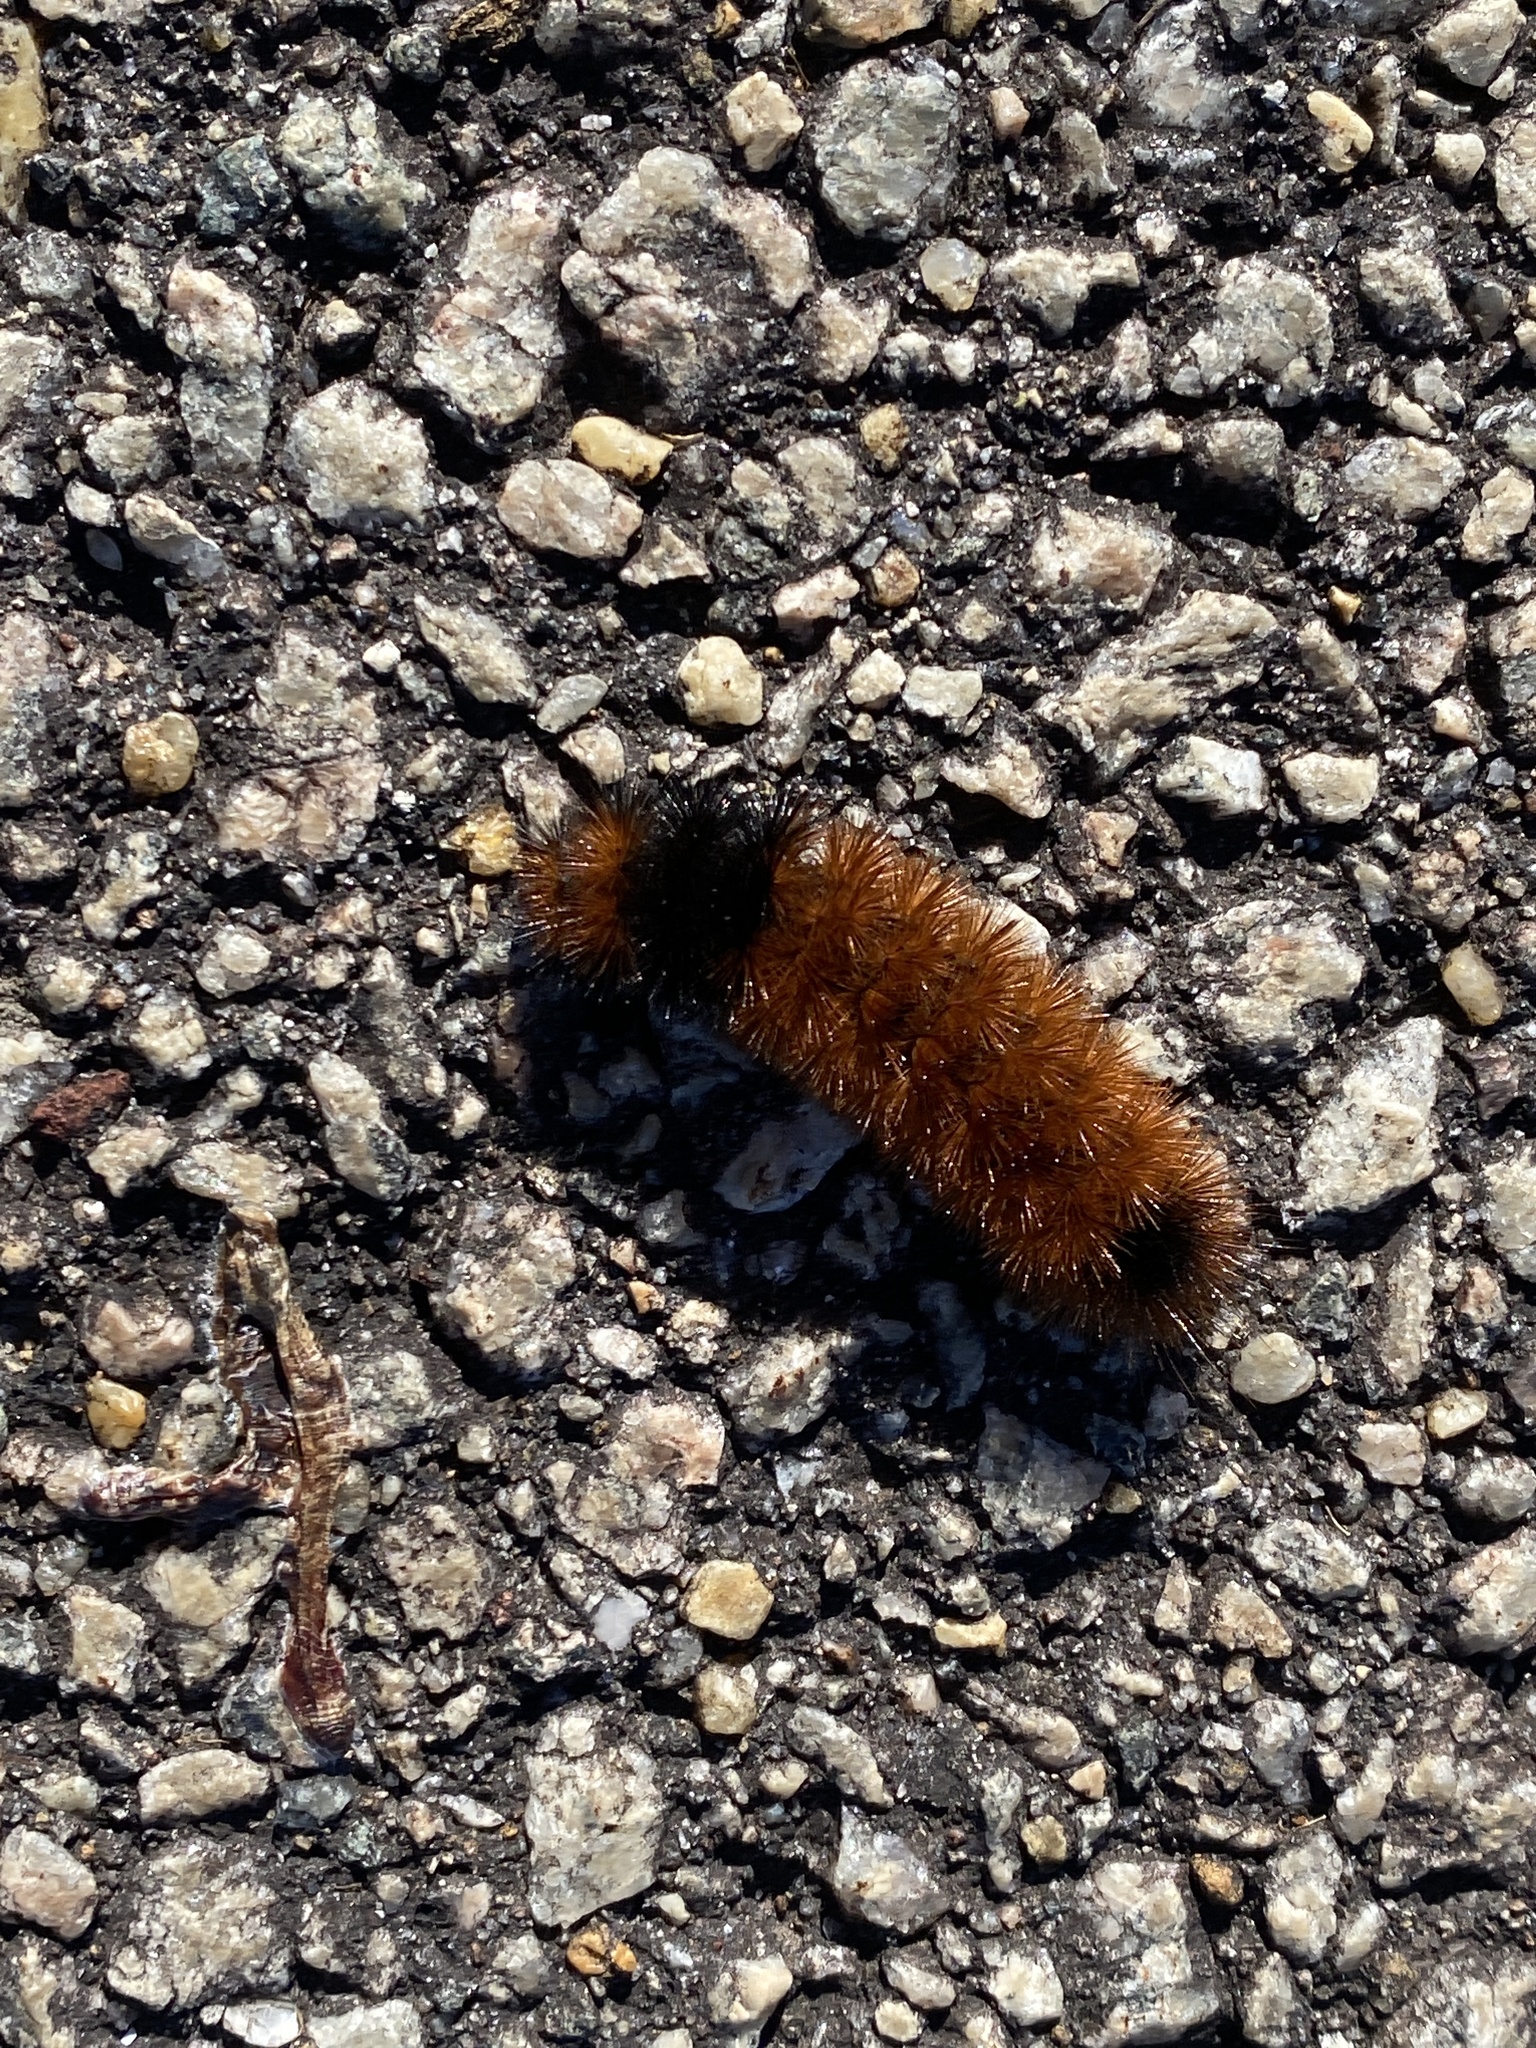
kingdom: Animalia
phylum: Arthropoda
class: Insecta
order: Lepidoptera
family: Erebidae
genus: Pyrrharctia
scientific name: Pyrrharctia isabella
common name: Isabella tiger moth
